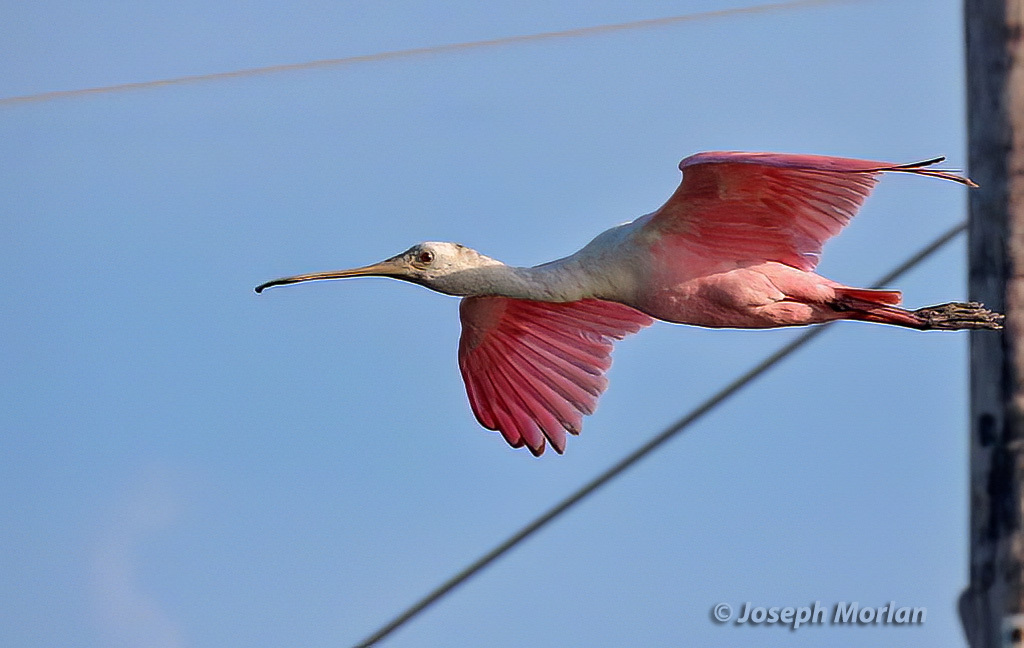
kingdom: Animalia
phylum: Chordata
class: Aves
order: Pelecaniformes
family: Threskiornithidae
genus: Platalea
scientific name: Platalea ajaja
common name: Roseate spoonbill
